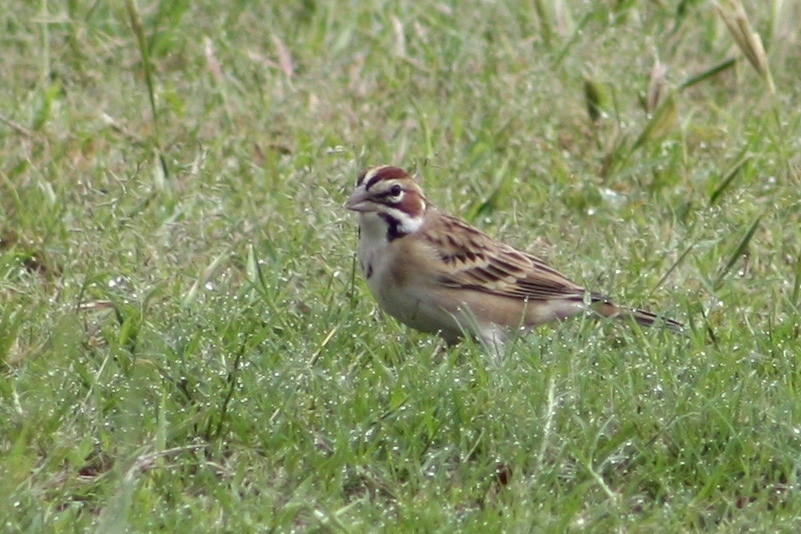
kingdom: Animalia
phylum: Chordata
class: Aves
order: Passeriformes
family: Passerellidae
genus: Chondestes
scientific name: Chondestes grammacus
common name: Lark sparrow
